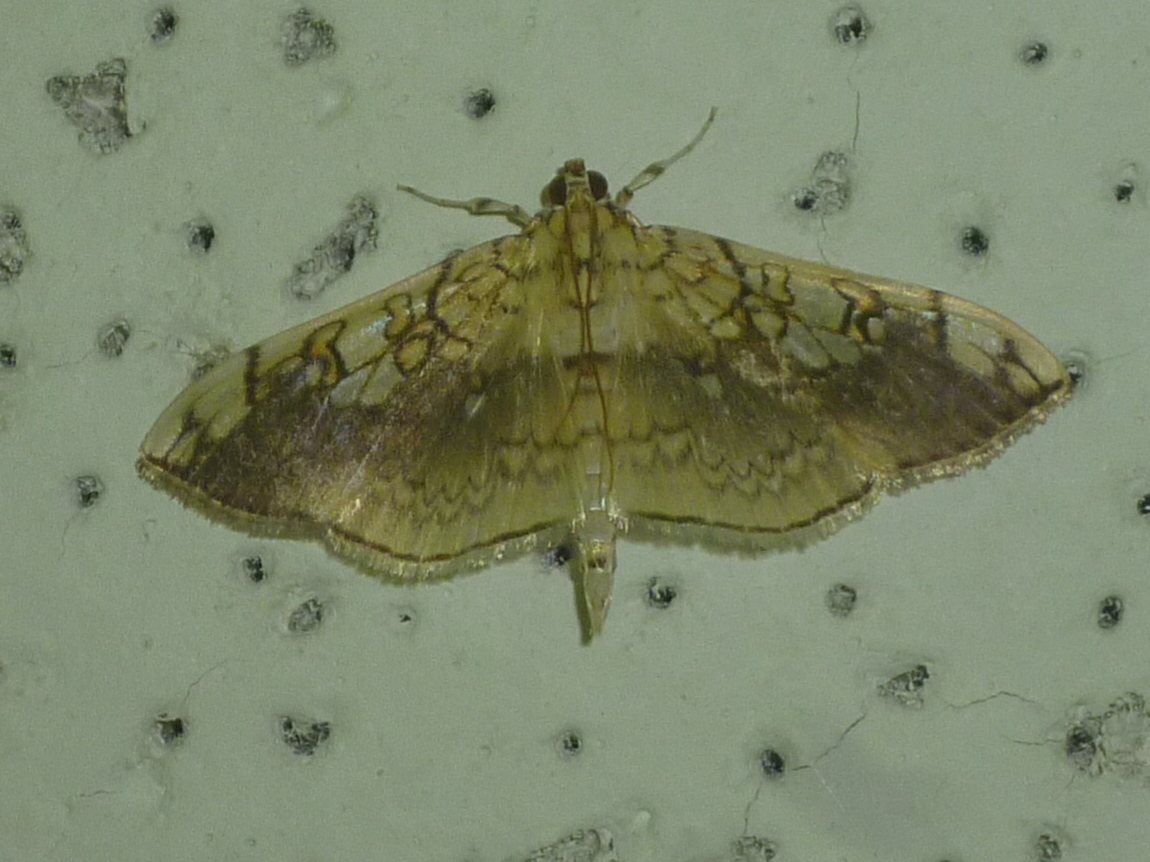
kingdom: Animalia
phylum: Arthropoda
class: Insecta
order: Lepidoptera
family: Crambidae
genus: Pantographa
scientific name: Pantographa limata
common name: Basswood leafroller moth
